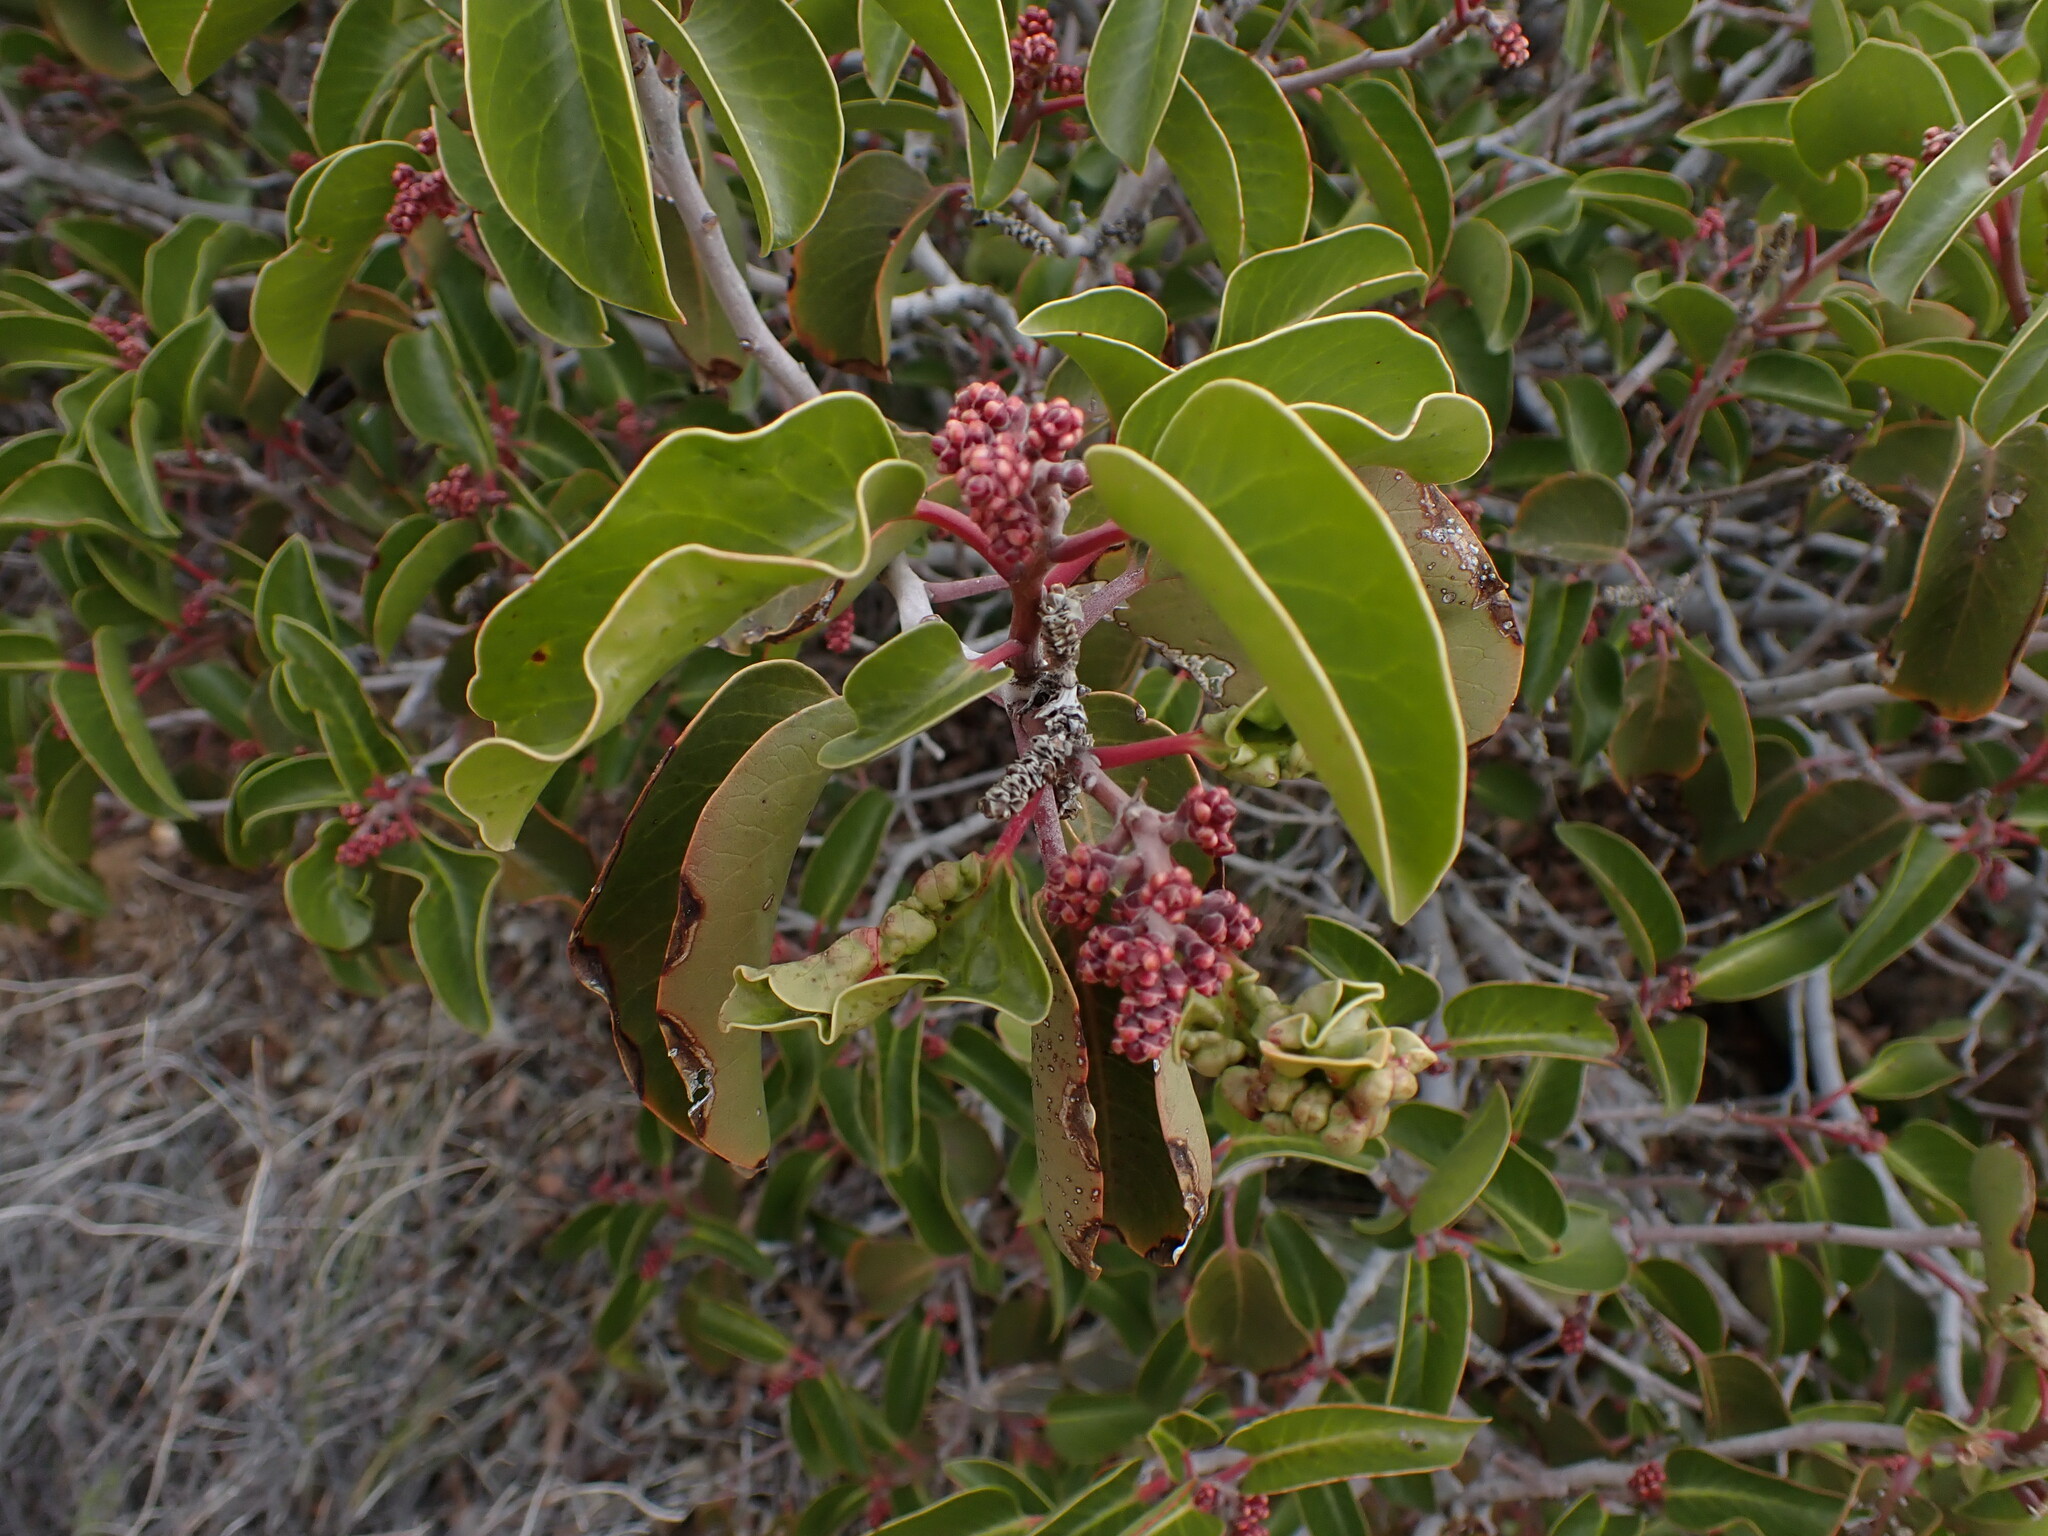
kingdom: Plantae
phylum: Tracheophyta
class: Magnoliopsida
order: Sapindales
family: Anacardiaceae
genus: Rhus
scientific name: Rhus ovata
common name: Sugar sumac
